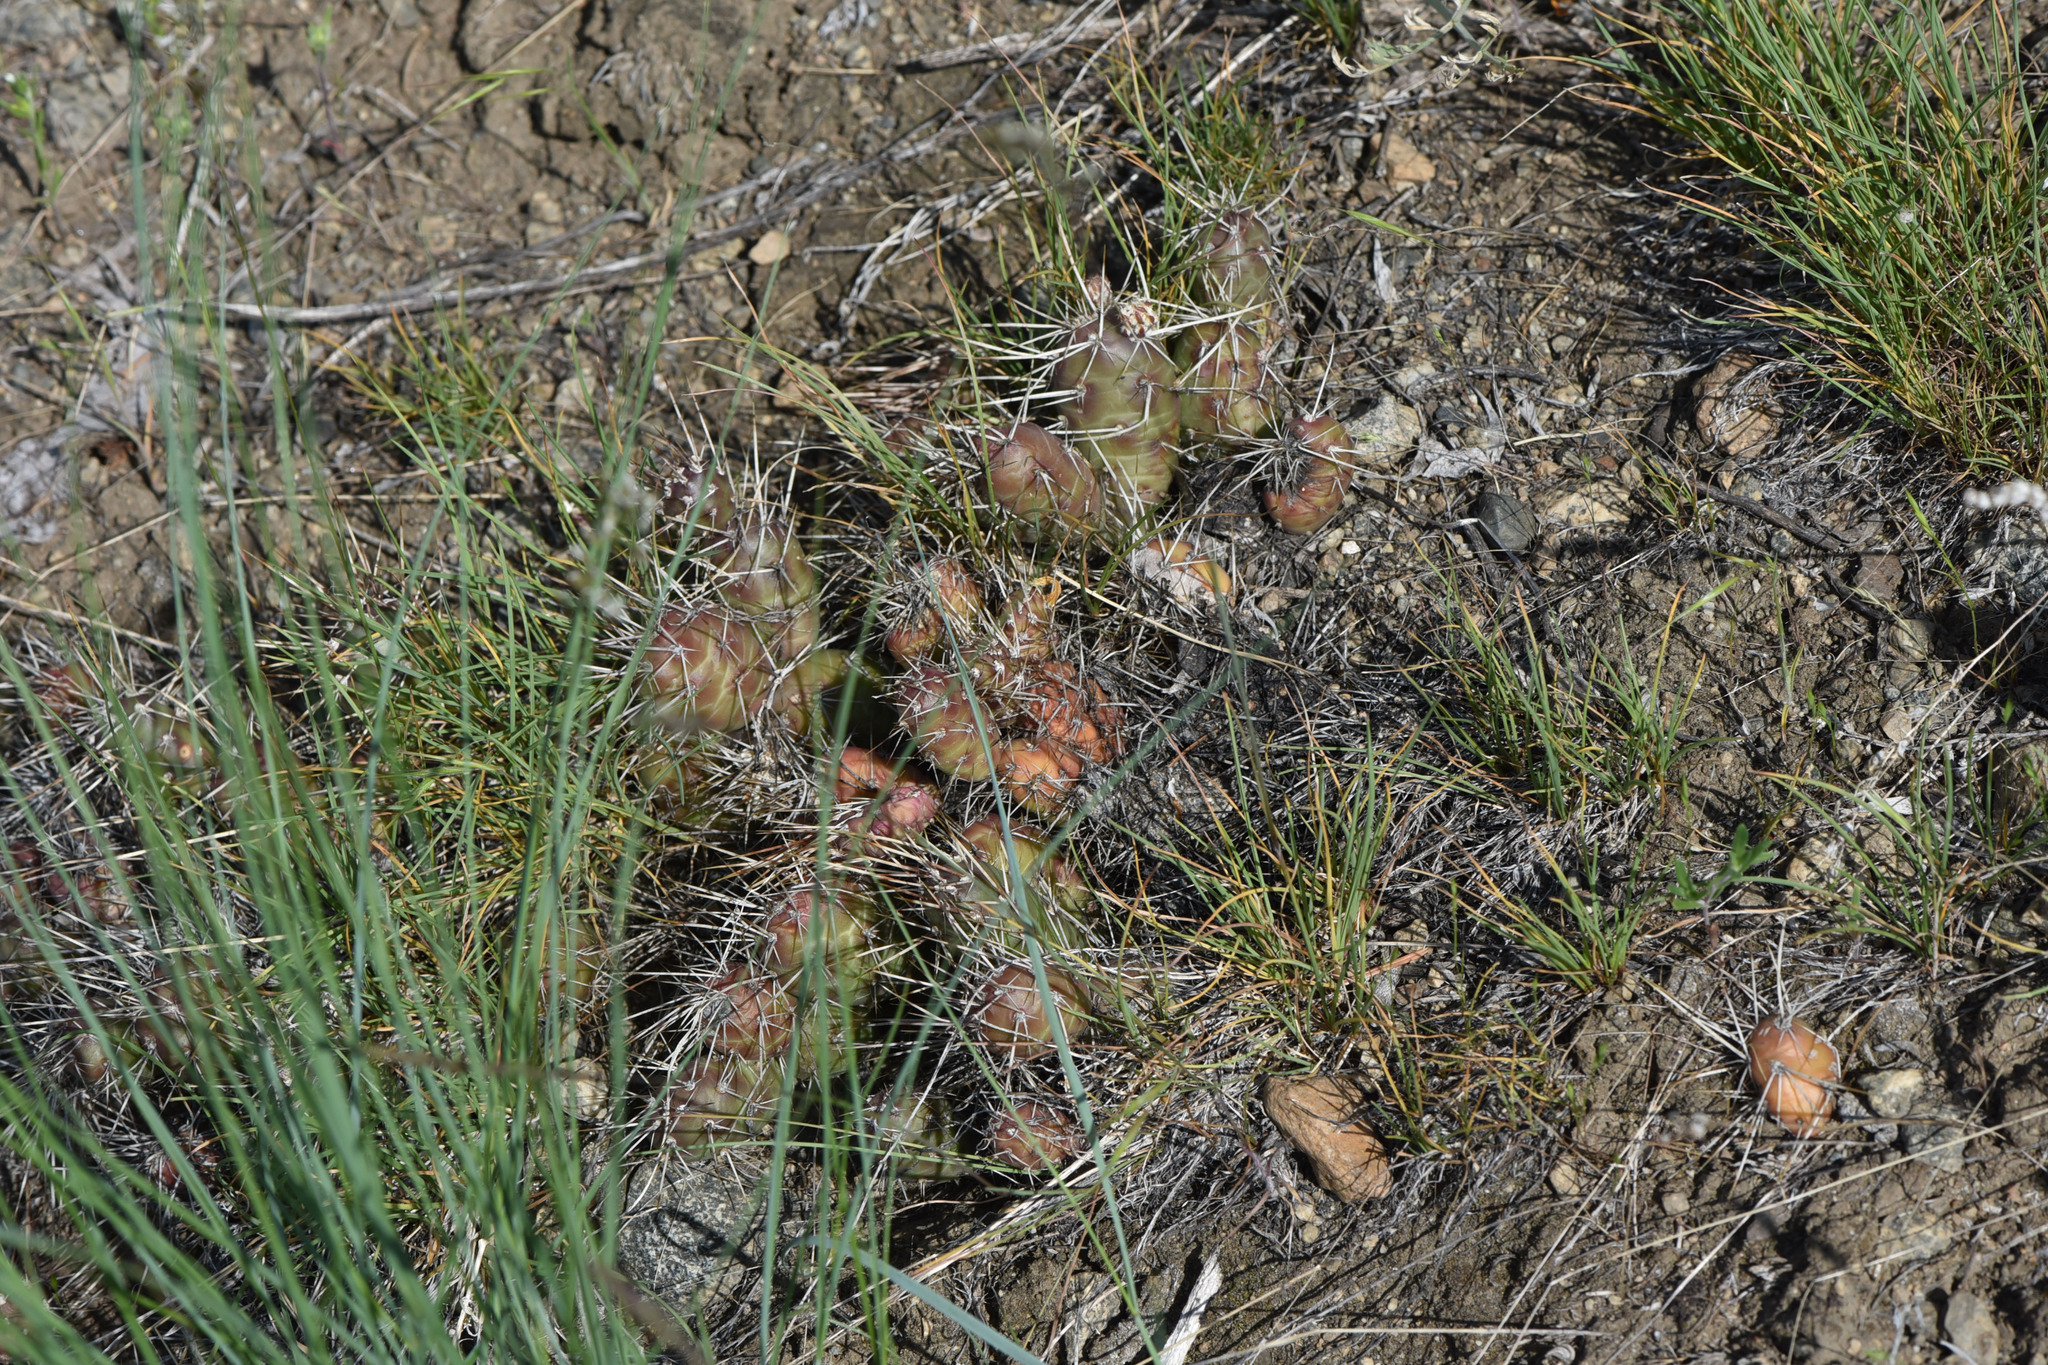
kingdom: Plantae
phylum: Tracheophyta
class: Magnoliopsida
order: Caryophyllales
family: Cactaceae
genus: Opuntia
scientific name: Opuntia fragilis
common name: Brittle cactus
